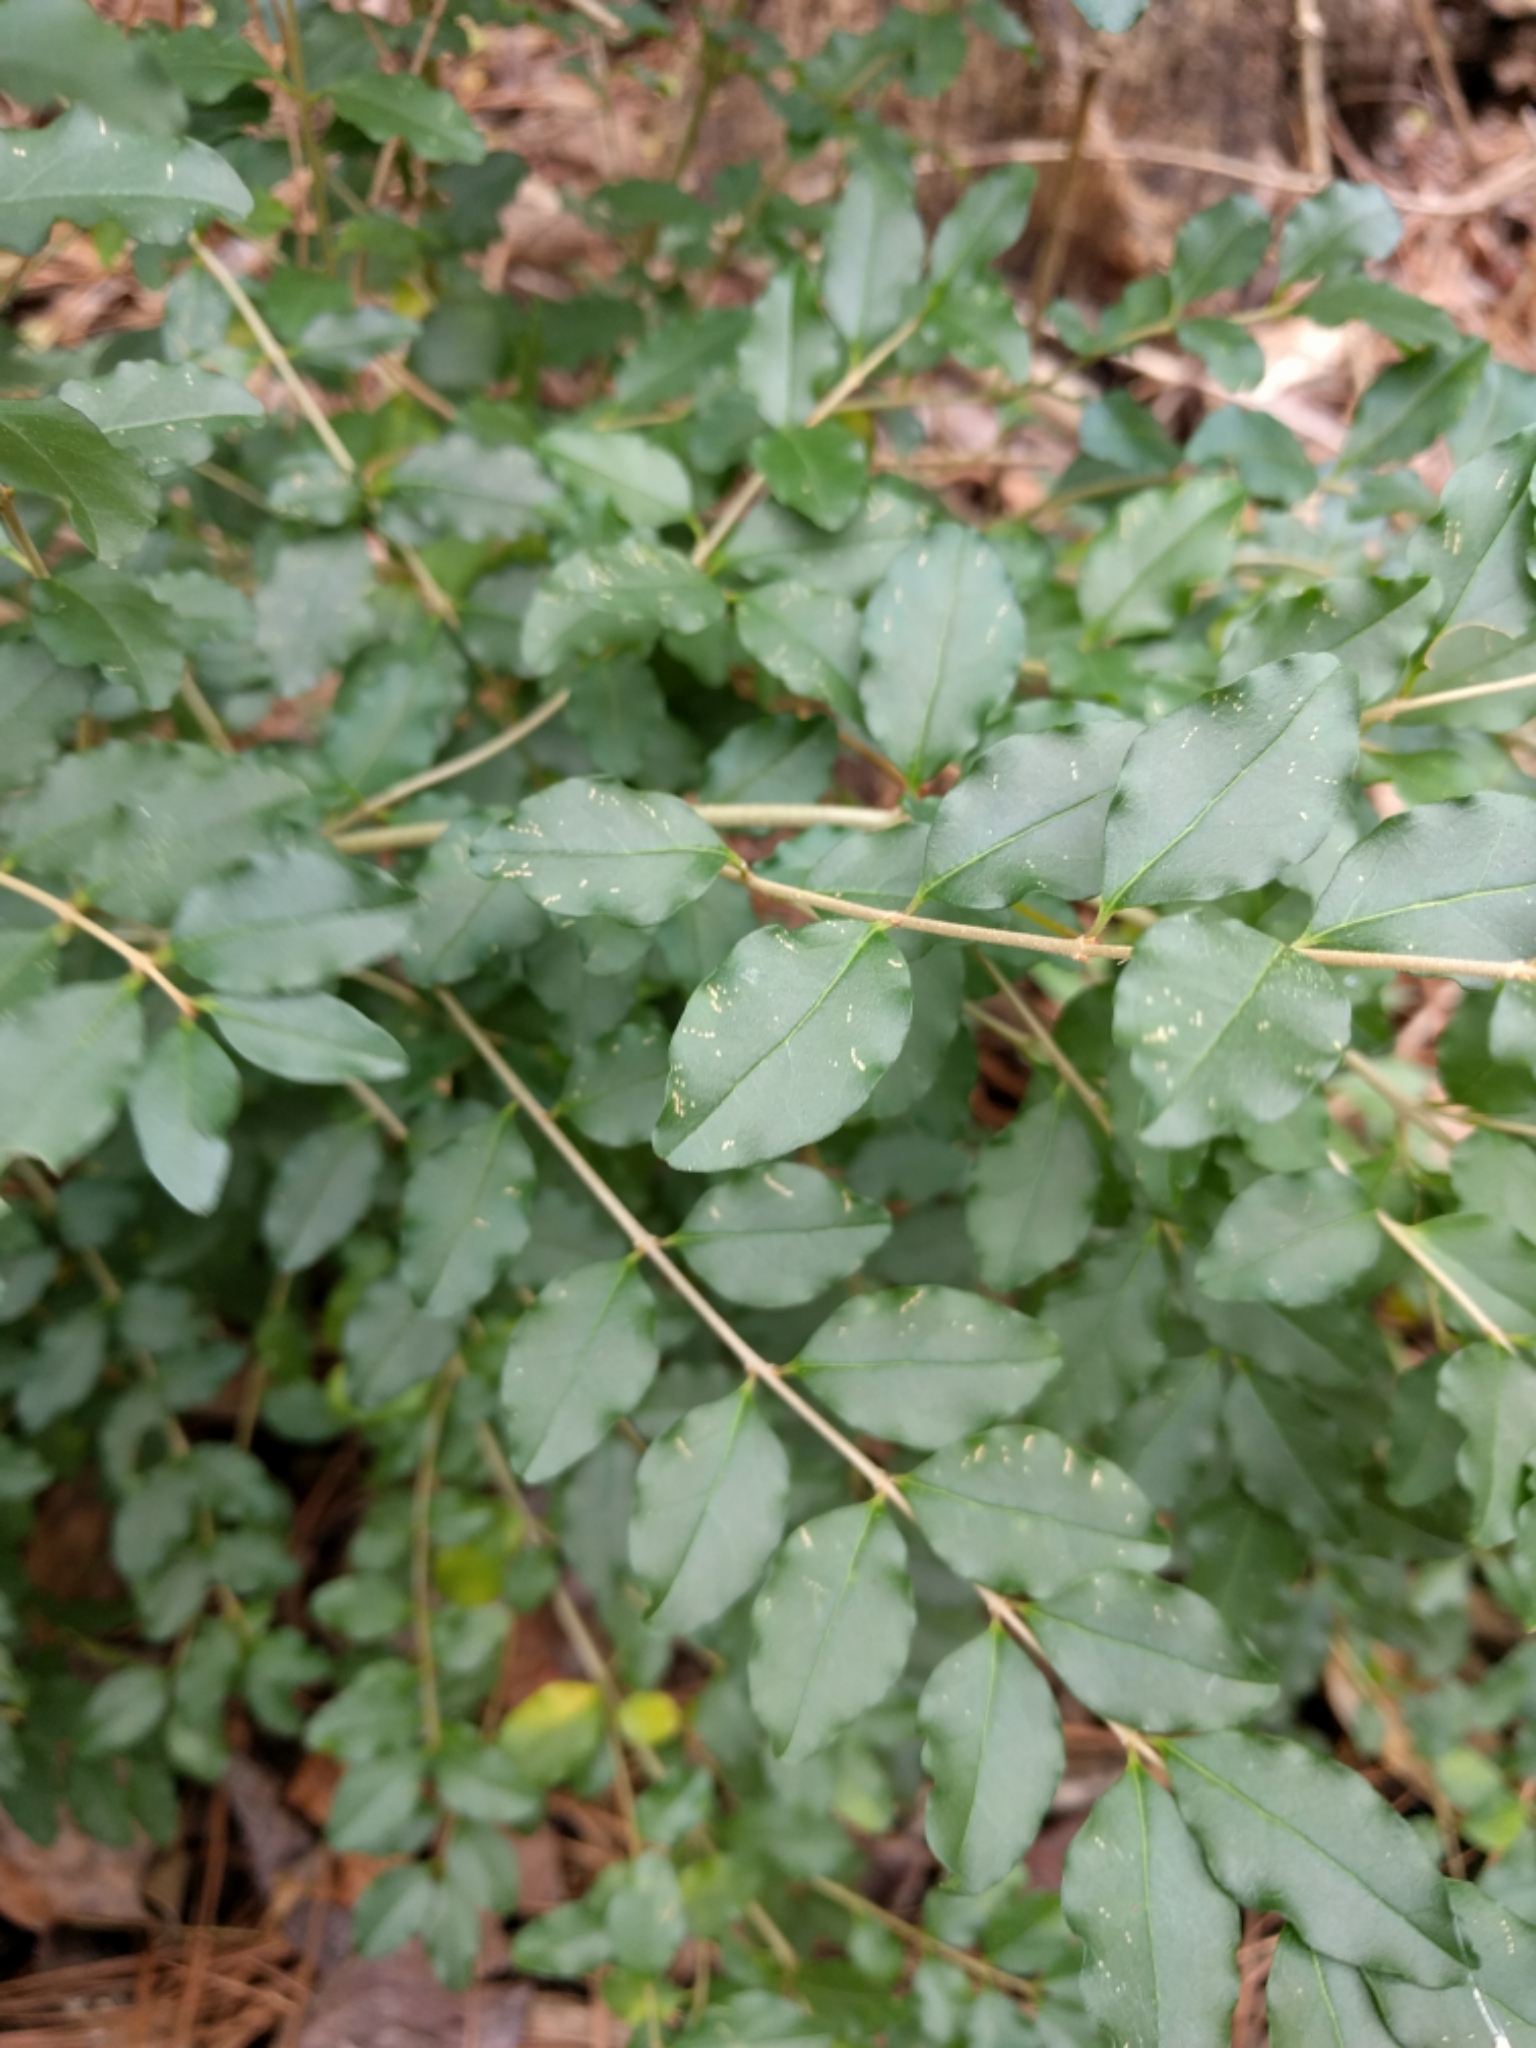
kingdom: Plantae
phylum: Tracheophyta
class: Magnoliopsida
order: Lamiales
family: Oleaceae
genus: Ligustrum
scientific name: Ligustrum sinense
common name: Chinese privet
